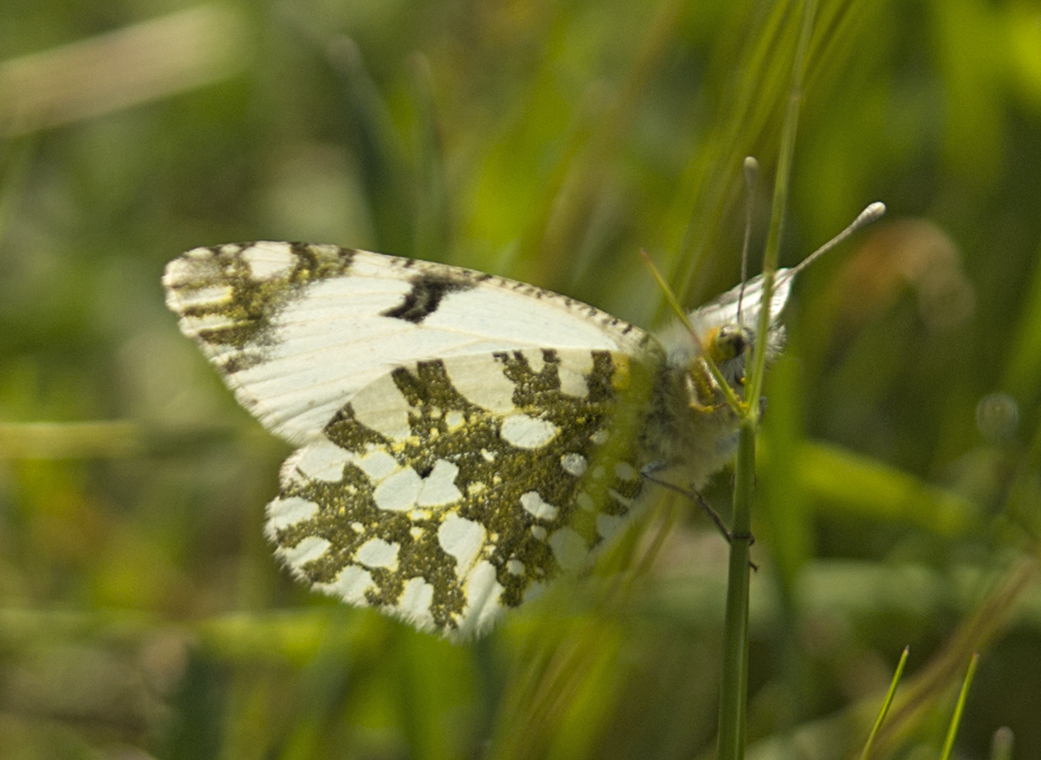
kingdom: Animalia
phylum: Arthropoda
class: Insecta
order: Lepidoptera
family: Pieridae
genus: Euchloe
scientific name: Euchloe ausonia
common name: Eastern dappled white
